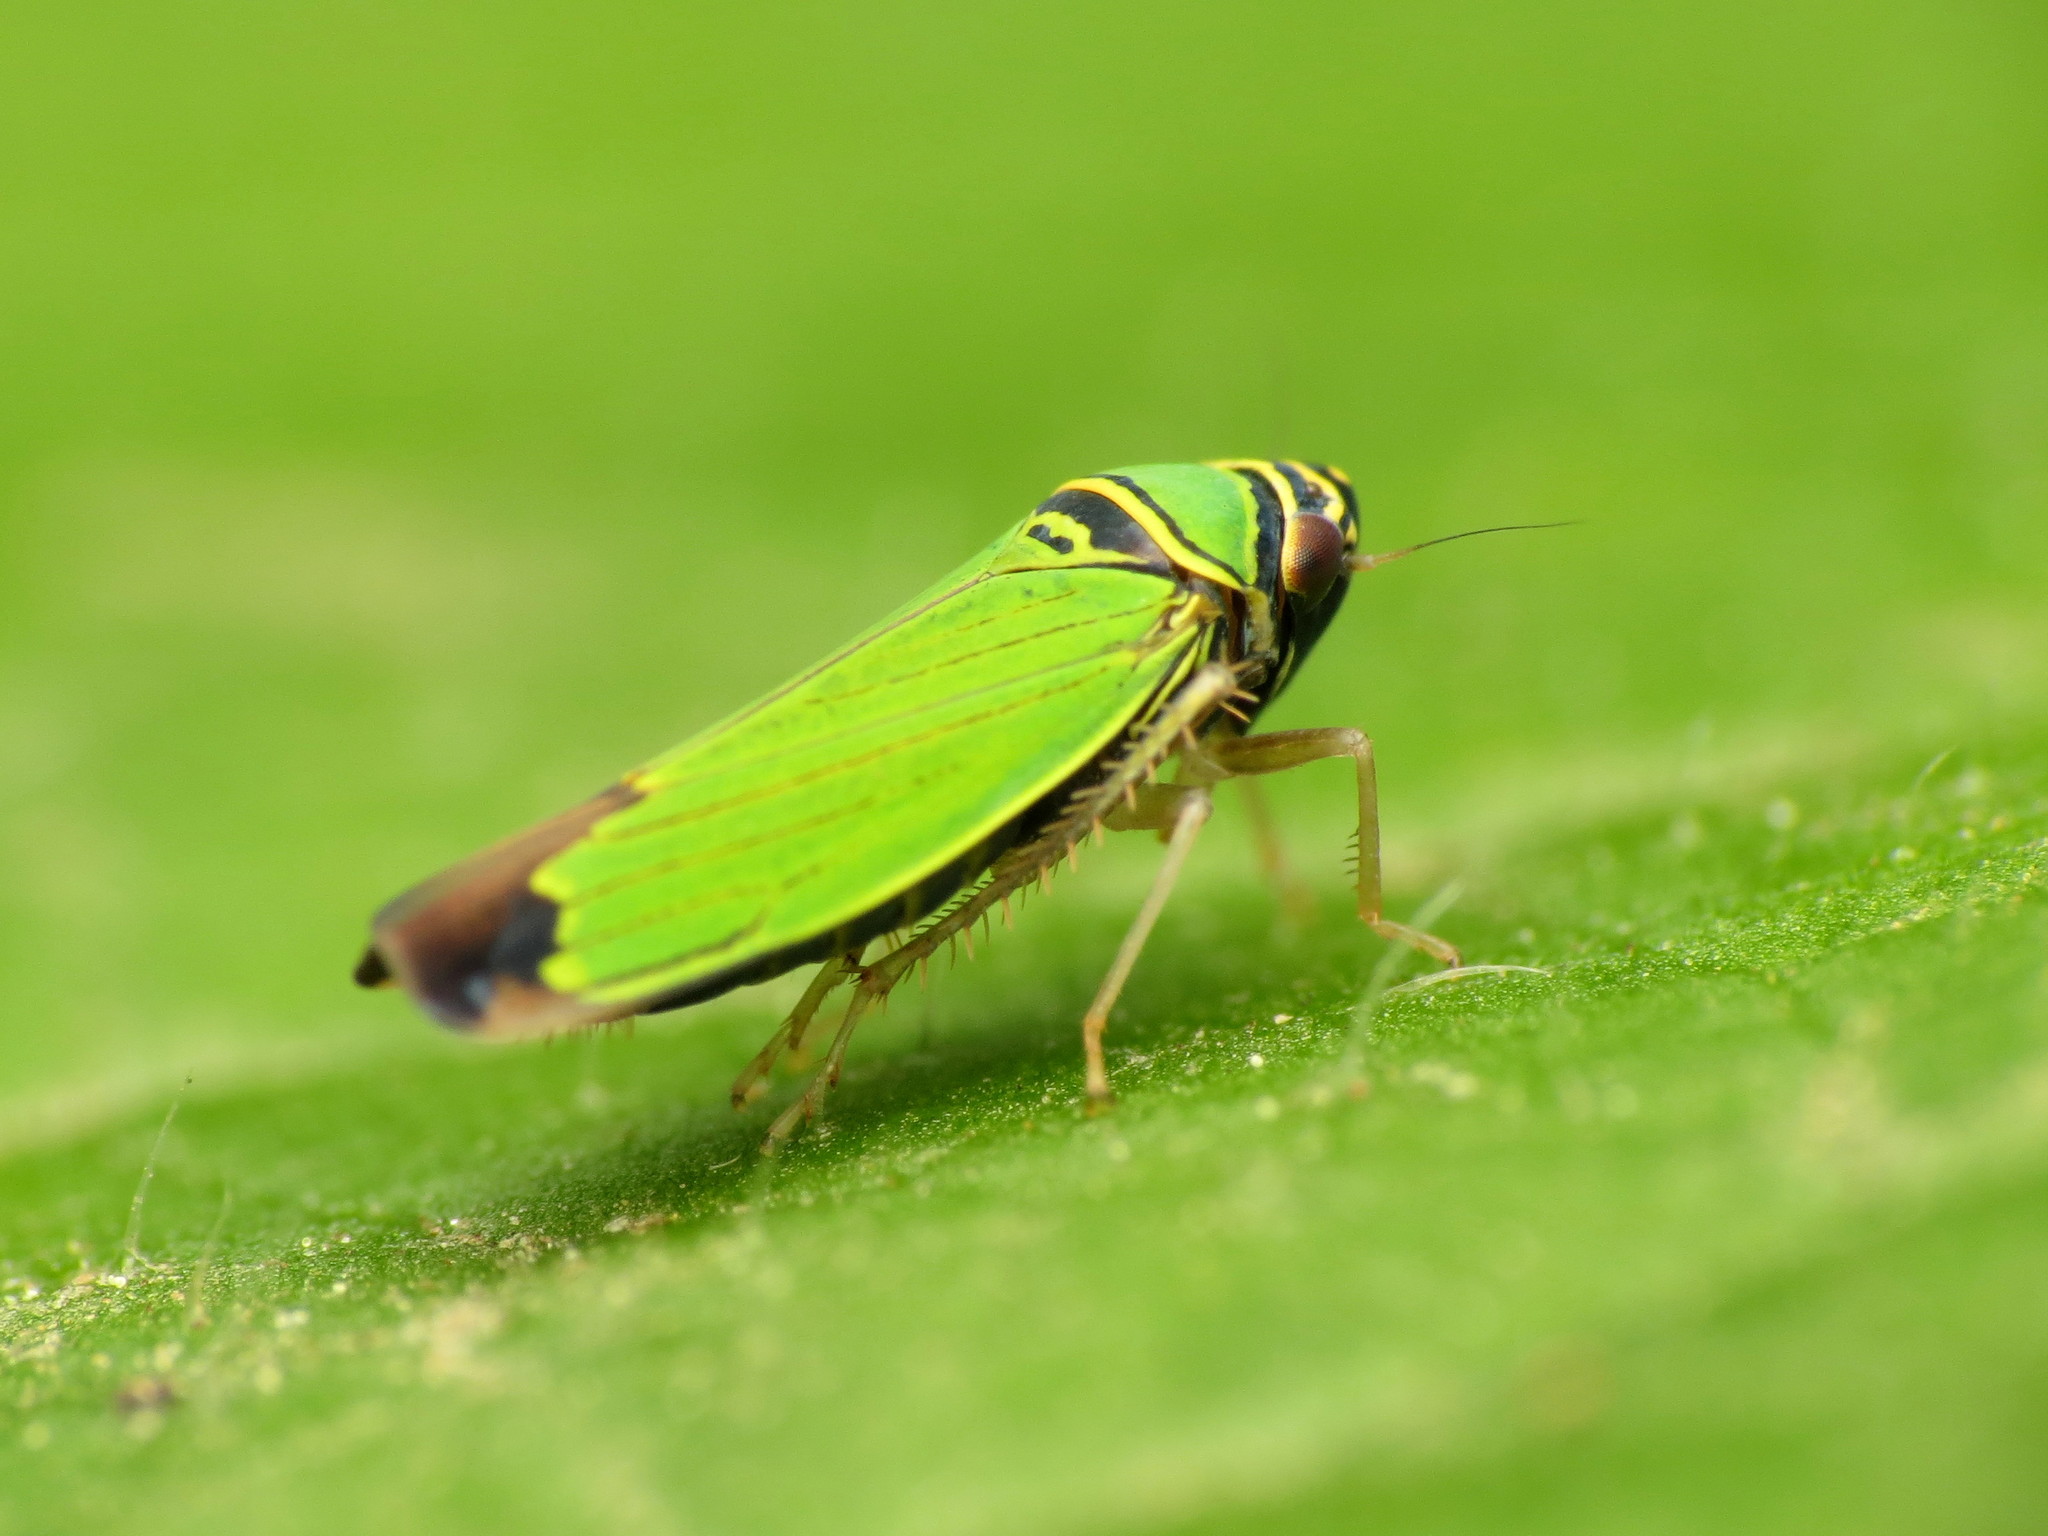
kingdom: Animalia
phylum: Arthropoda
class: Insecta
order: Hemiptera
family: Cicadellidae
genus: Tylozygus
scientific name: Tylozygus geometricus
